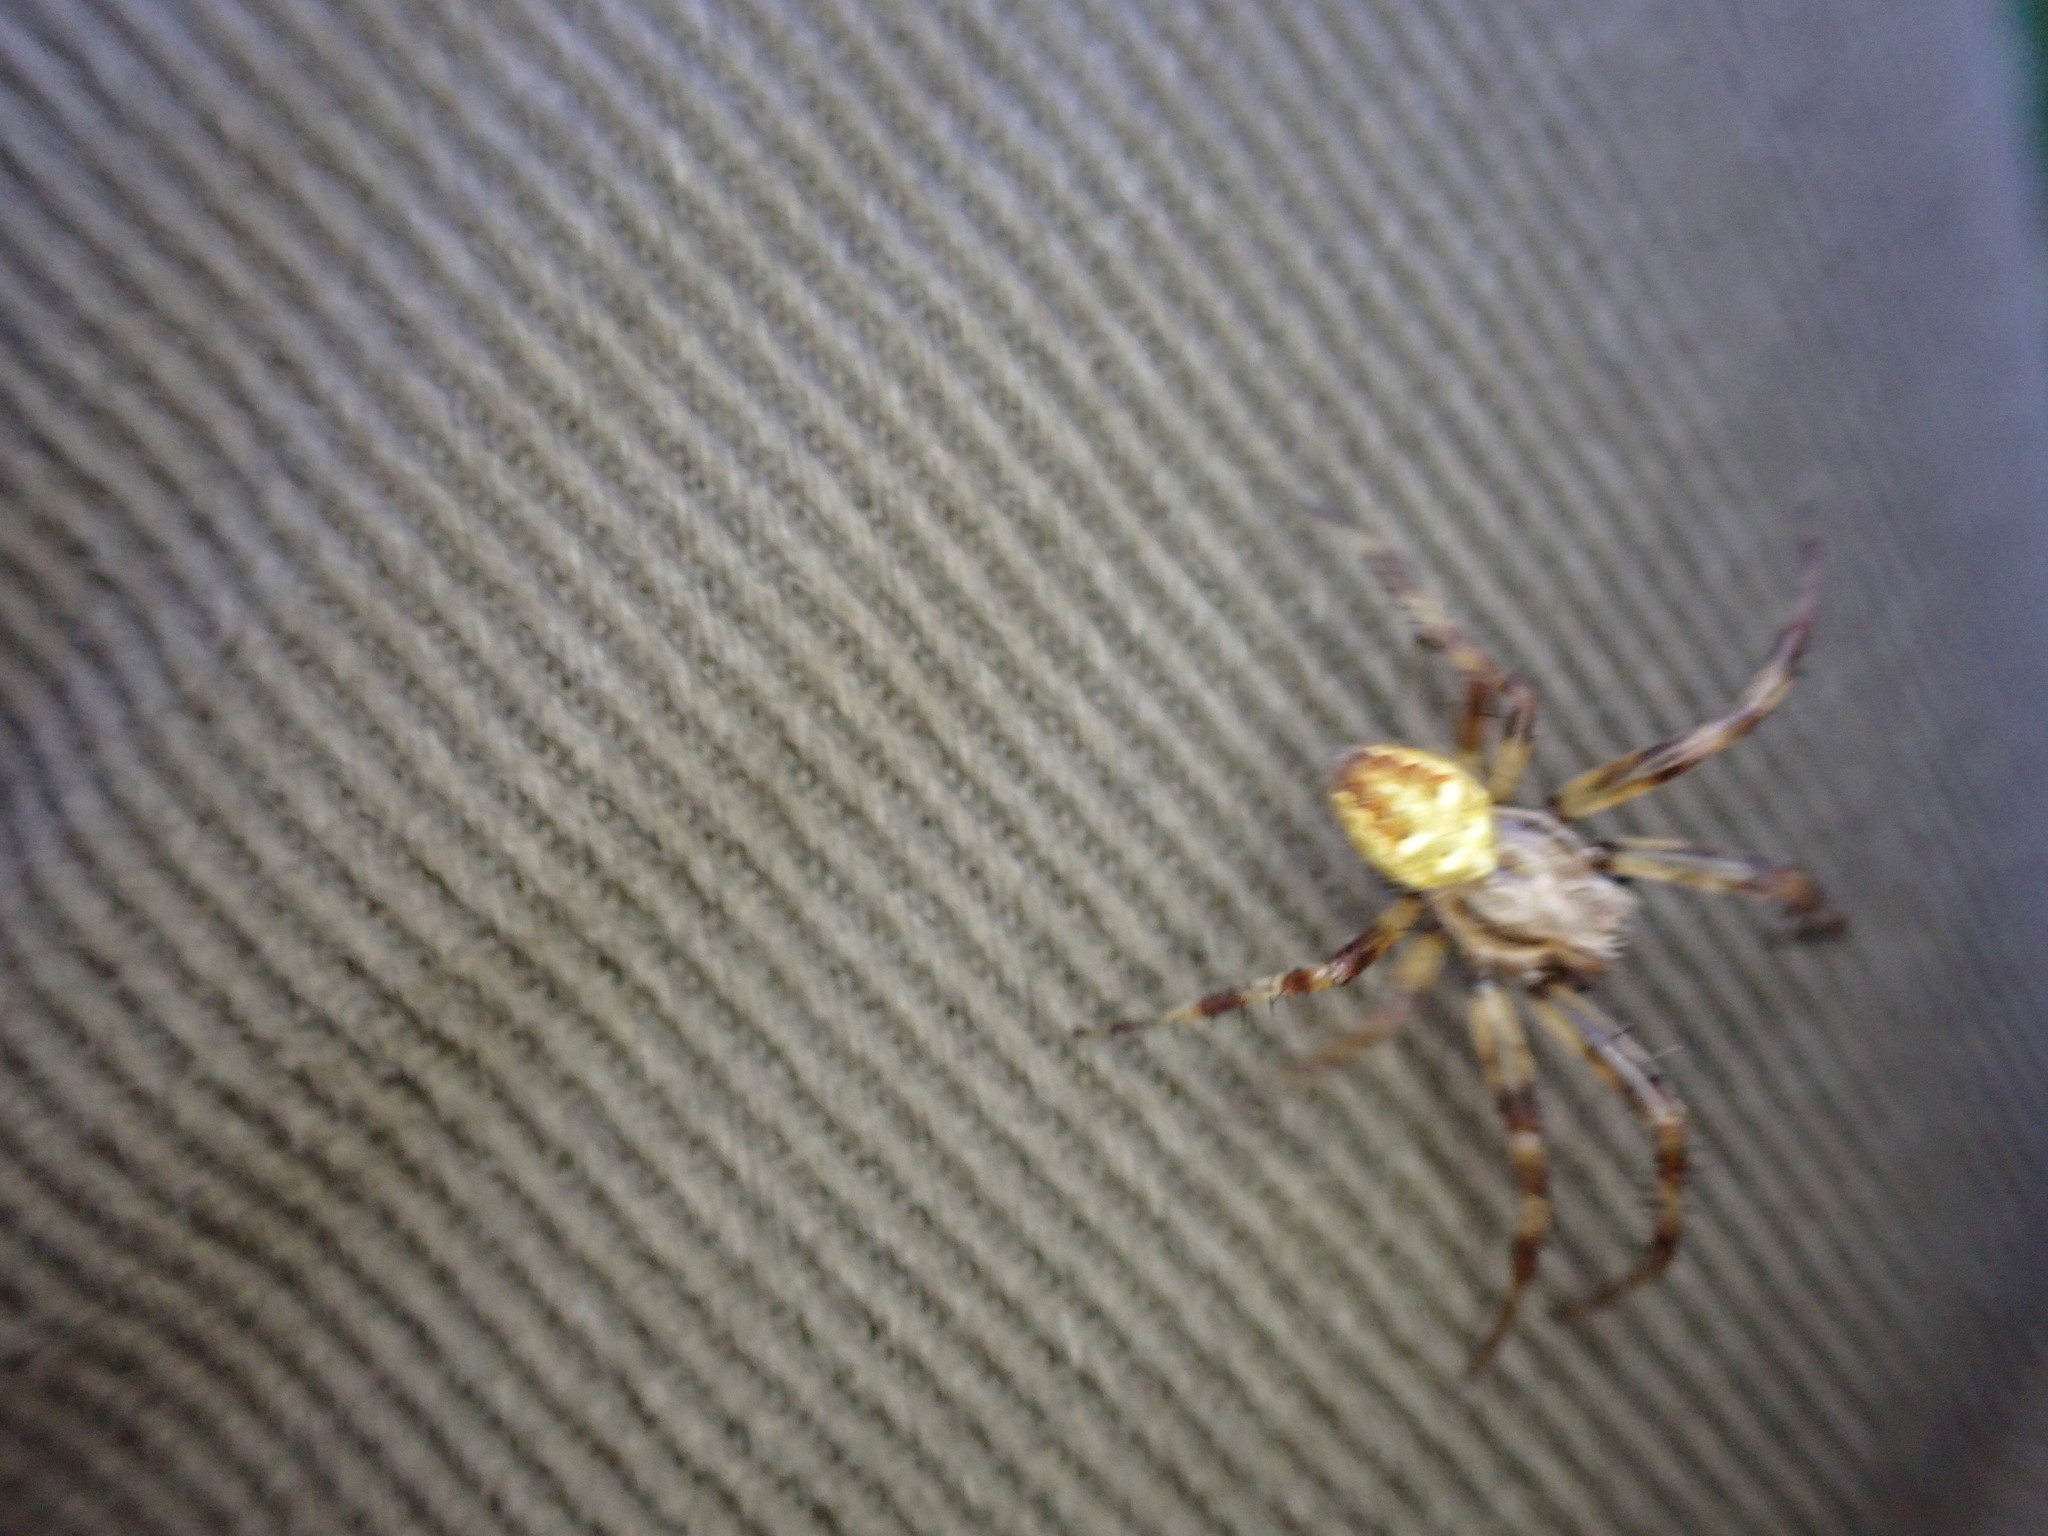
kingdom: Animalia
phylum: Arthropoda
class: Arachnida
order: Araneae
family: Araneidae
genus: Araneus
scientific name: Araneus quadratus
